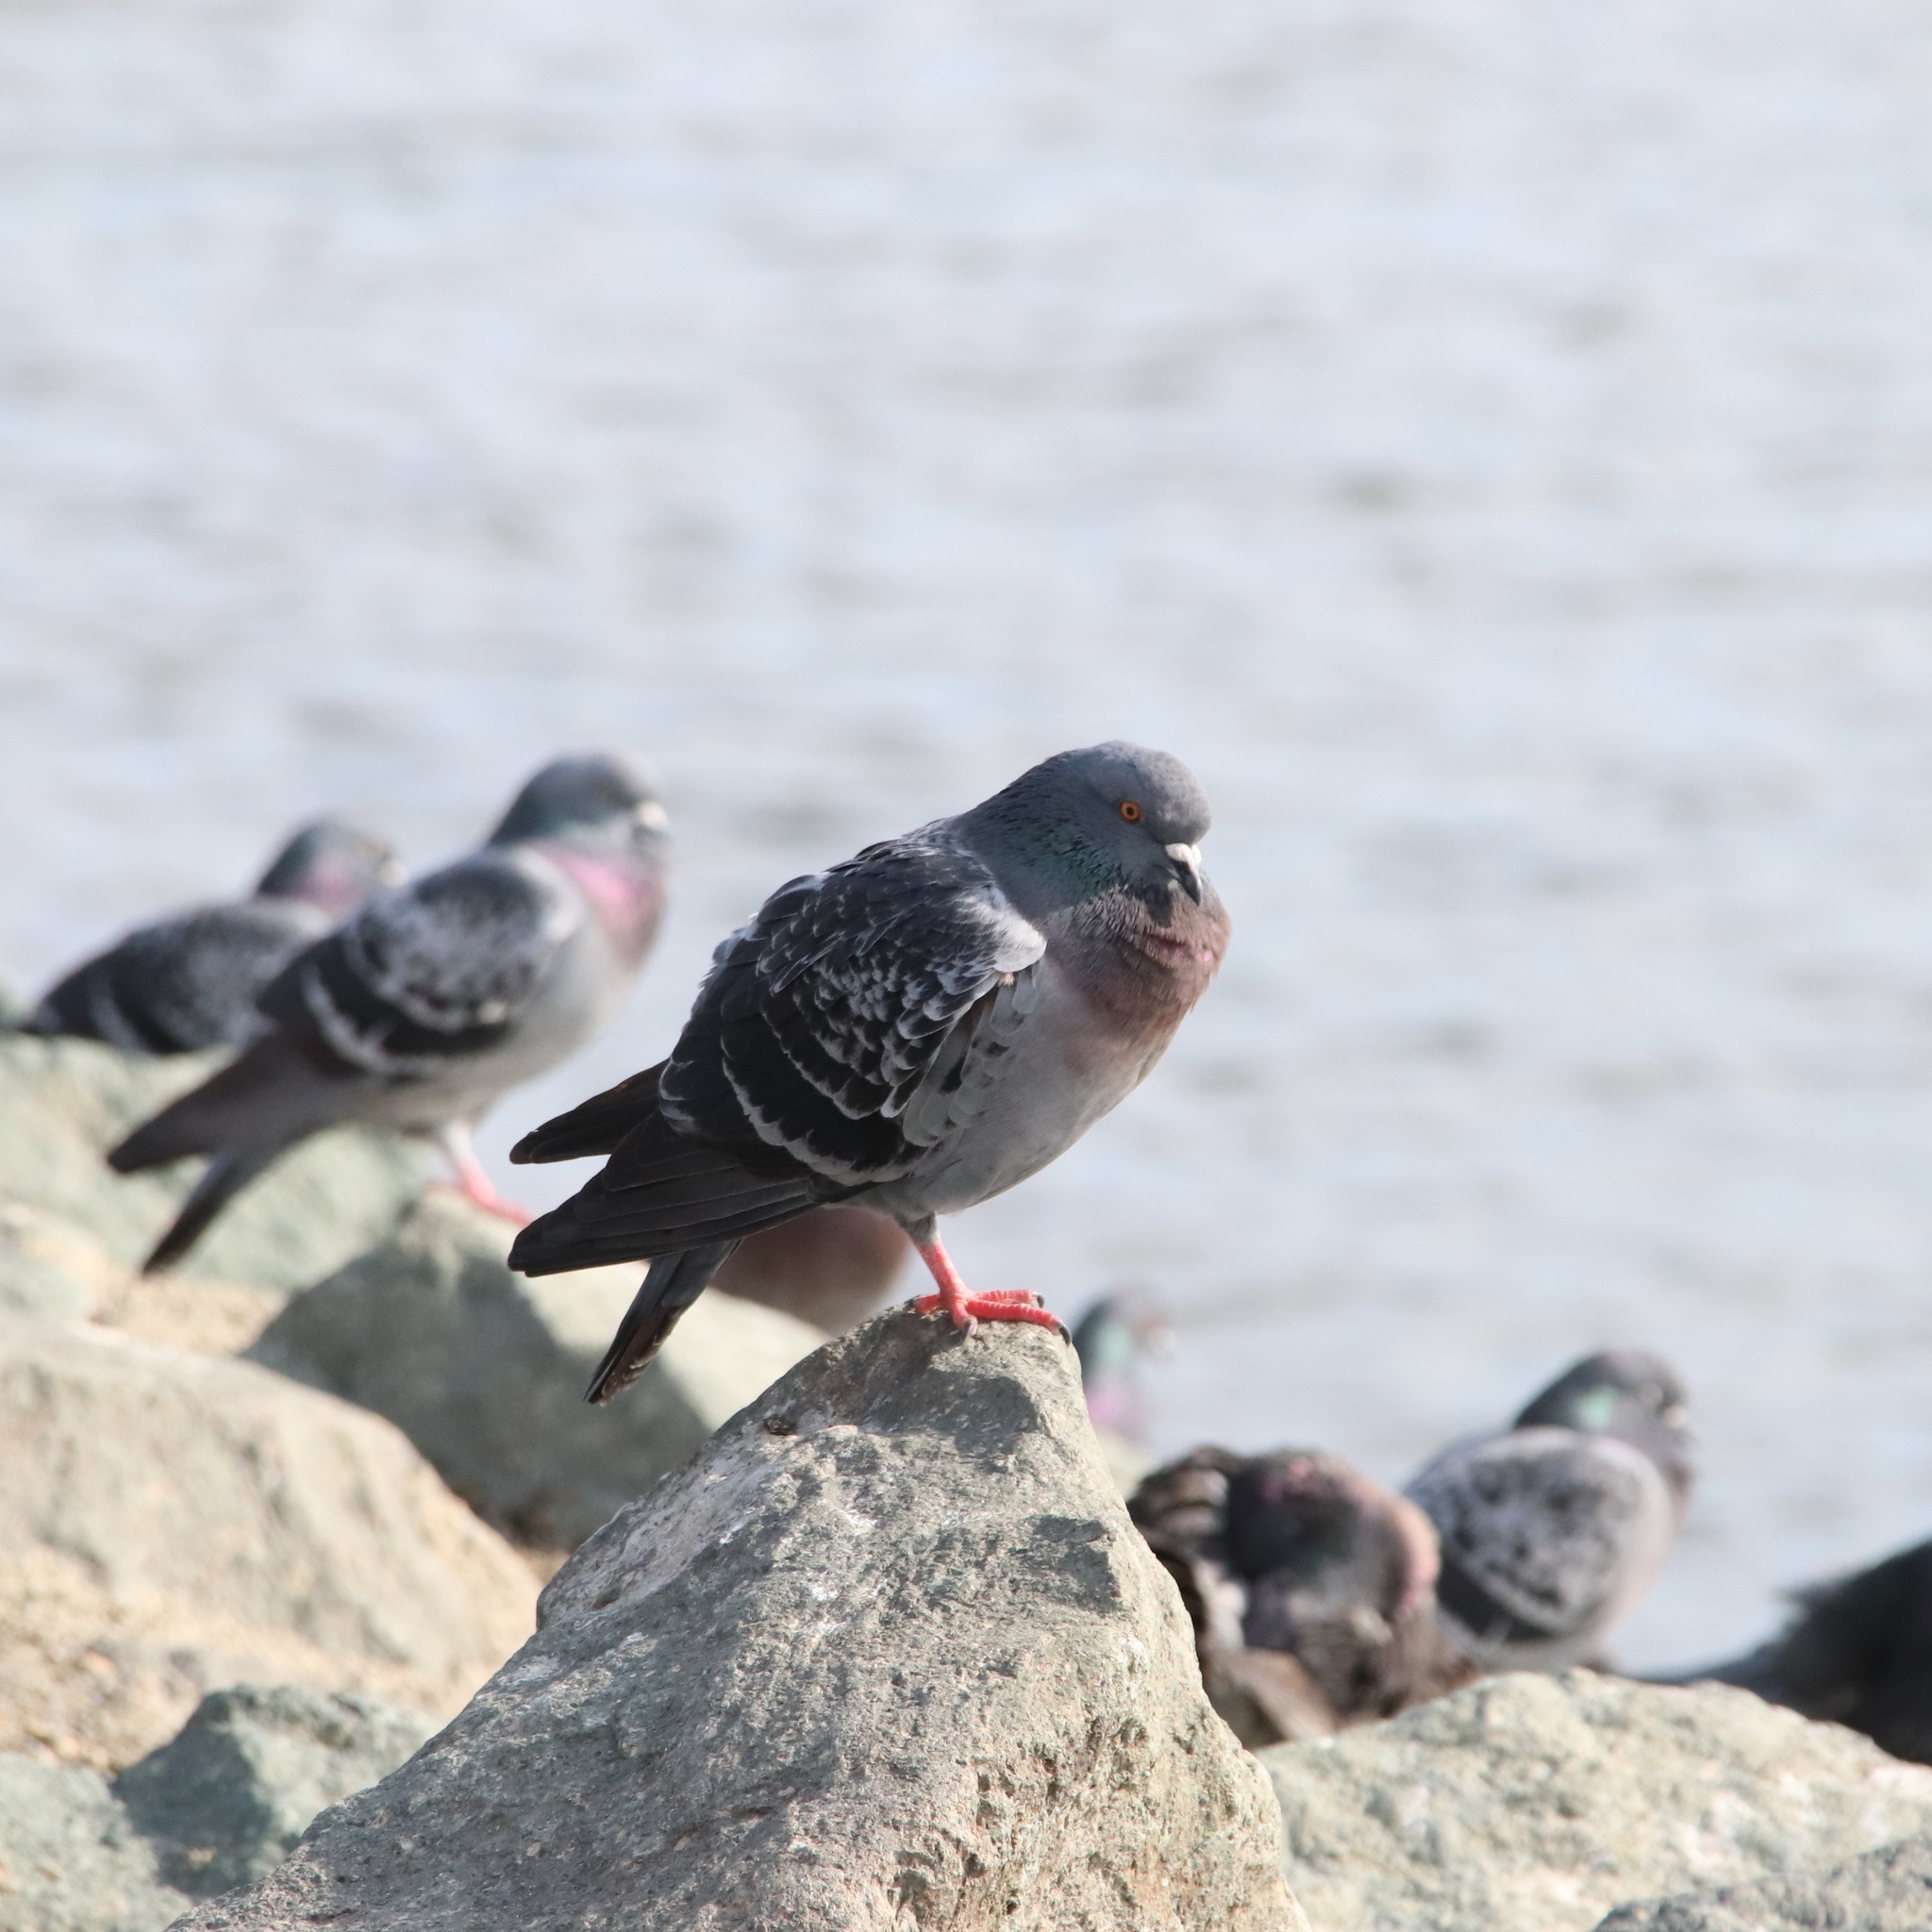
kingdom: Animalia
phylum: Chordata
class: Aves
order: Columbiformes
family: Columbidae
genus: Columba
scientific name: Columba livia
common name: Rock pigeon
